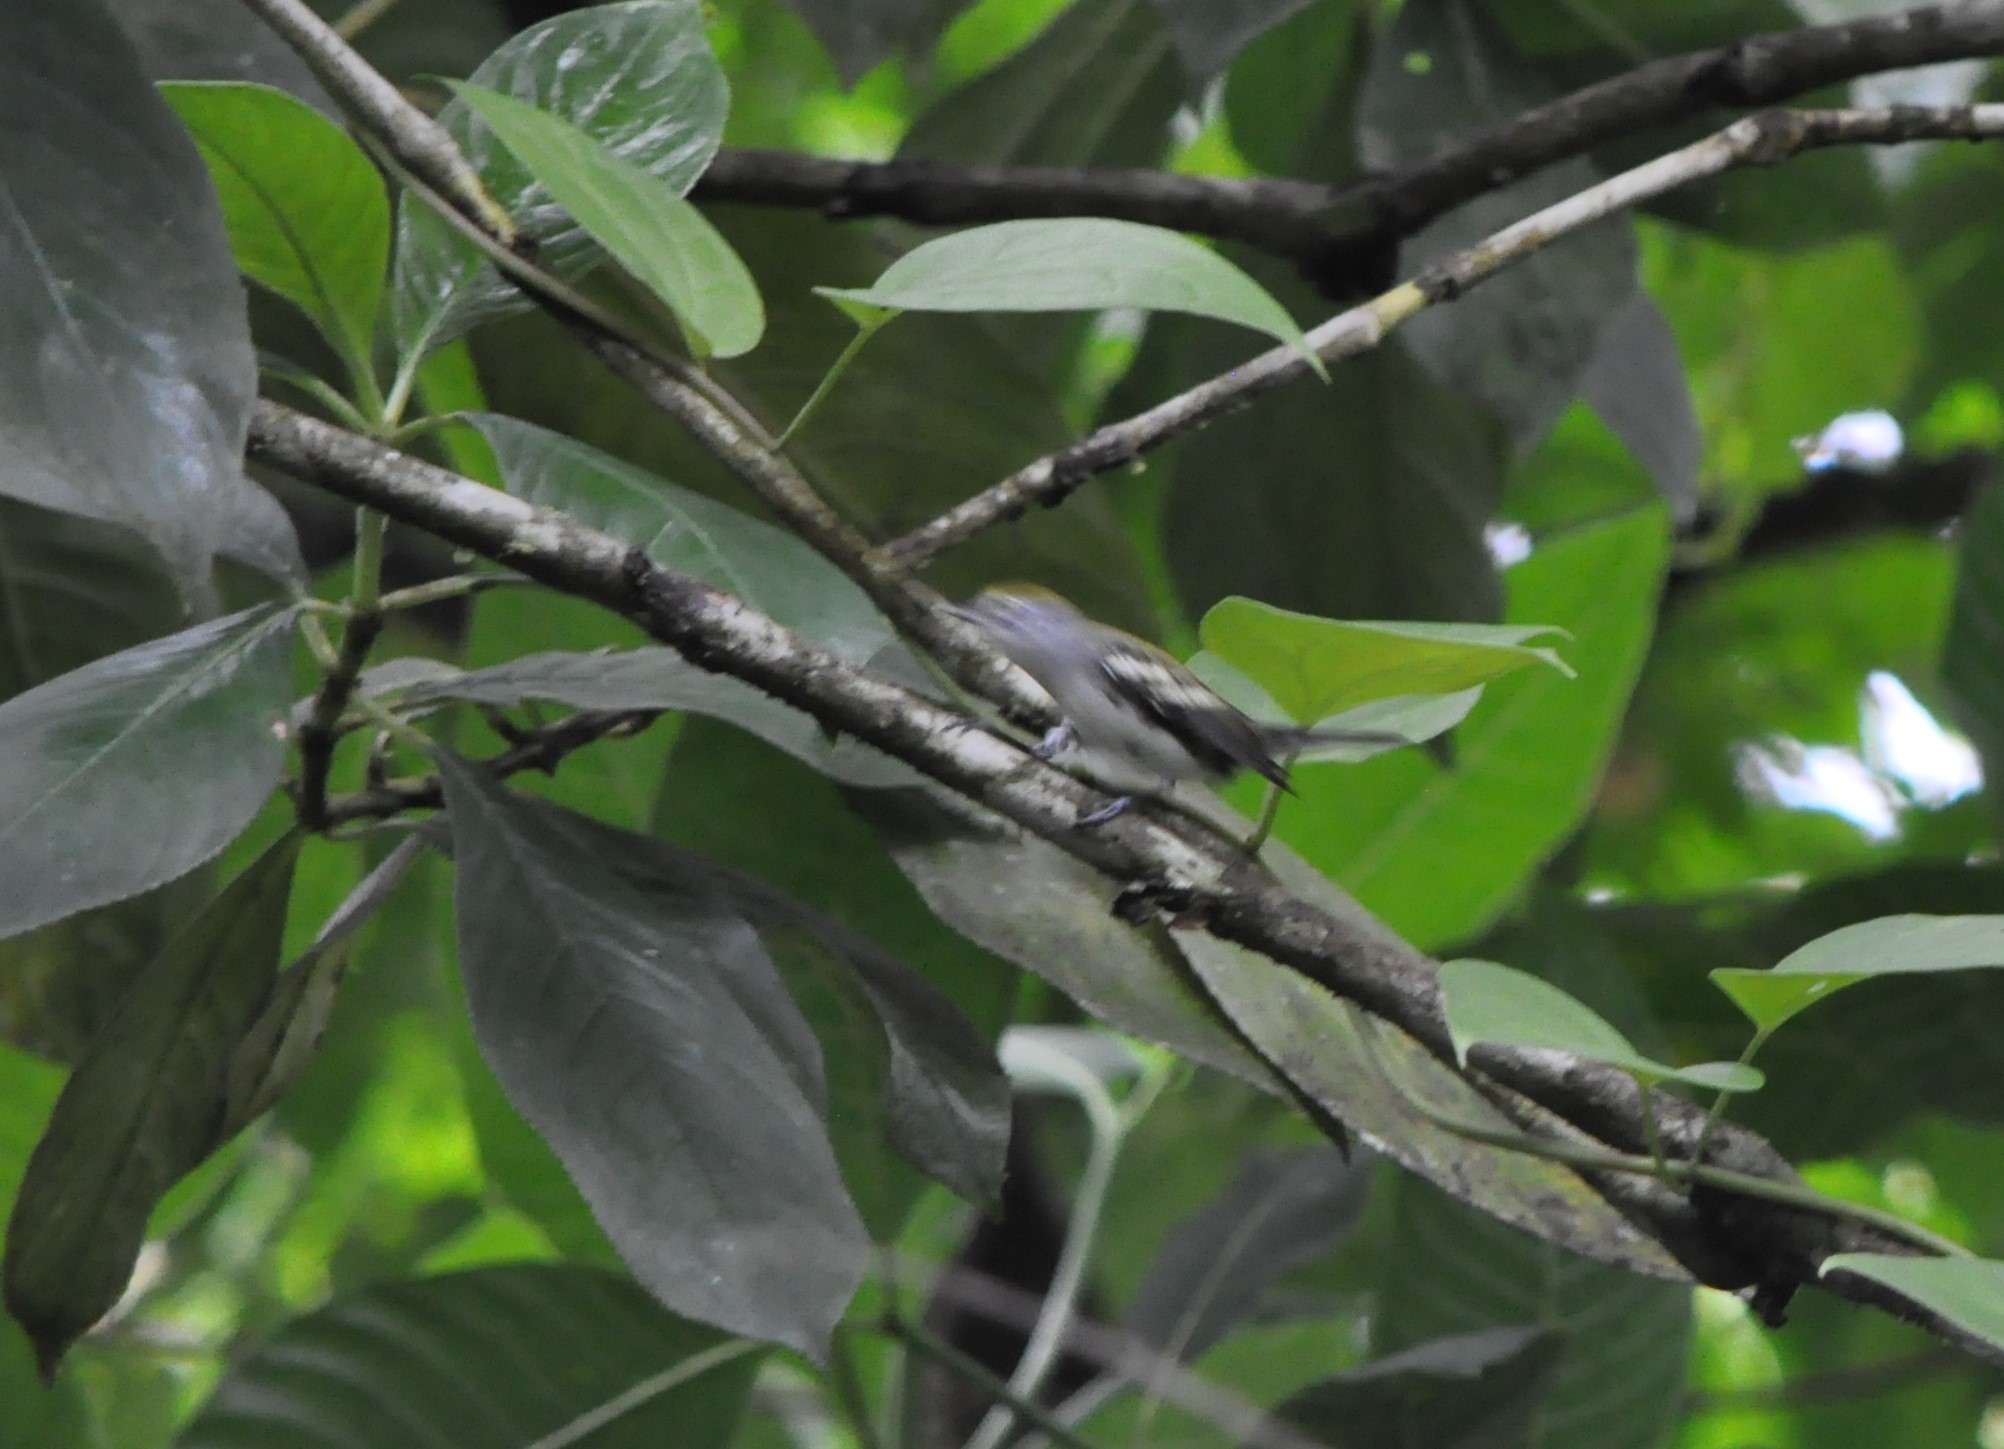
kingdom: Animalia
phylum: Chordata
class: Aves
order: Passeriformes
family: Parulidae
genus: Setophaga
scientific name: Setophaga pensylvanica
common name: Chestnut-sided warbler
